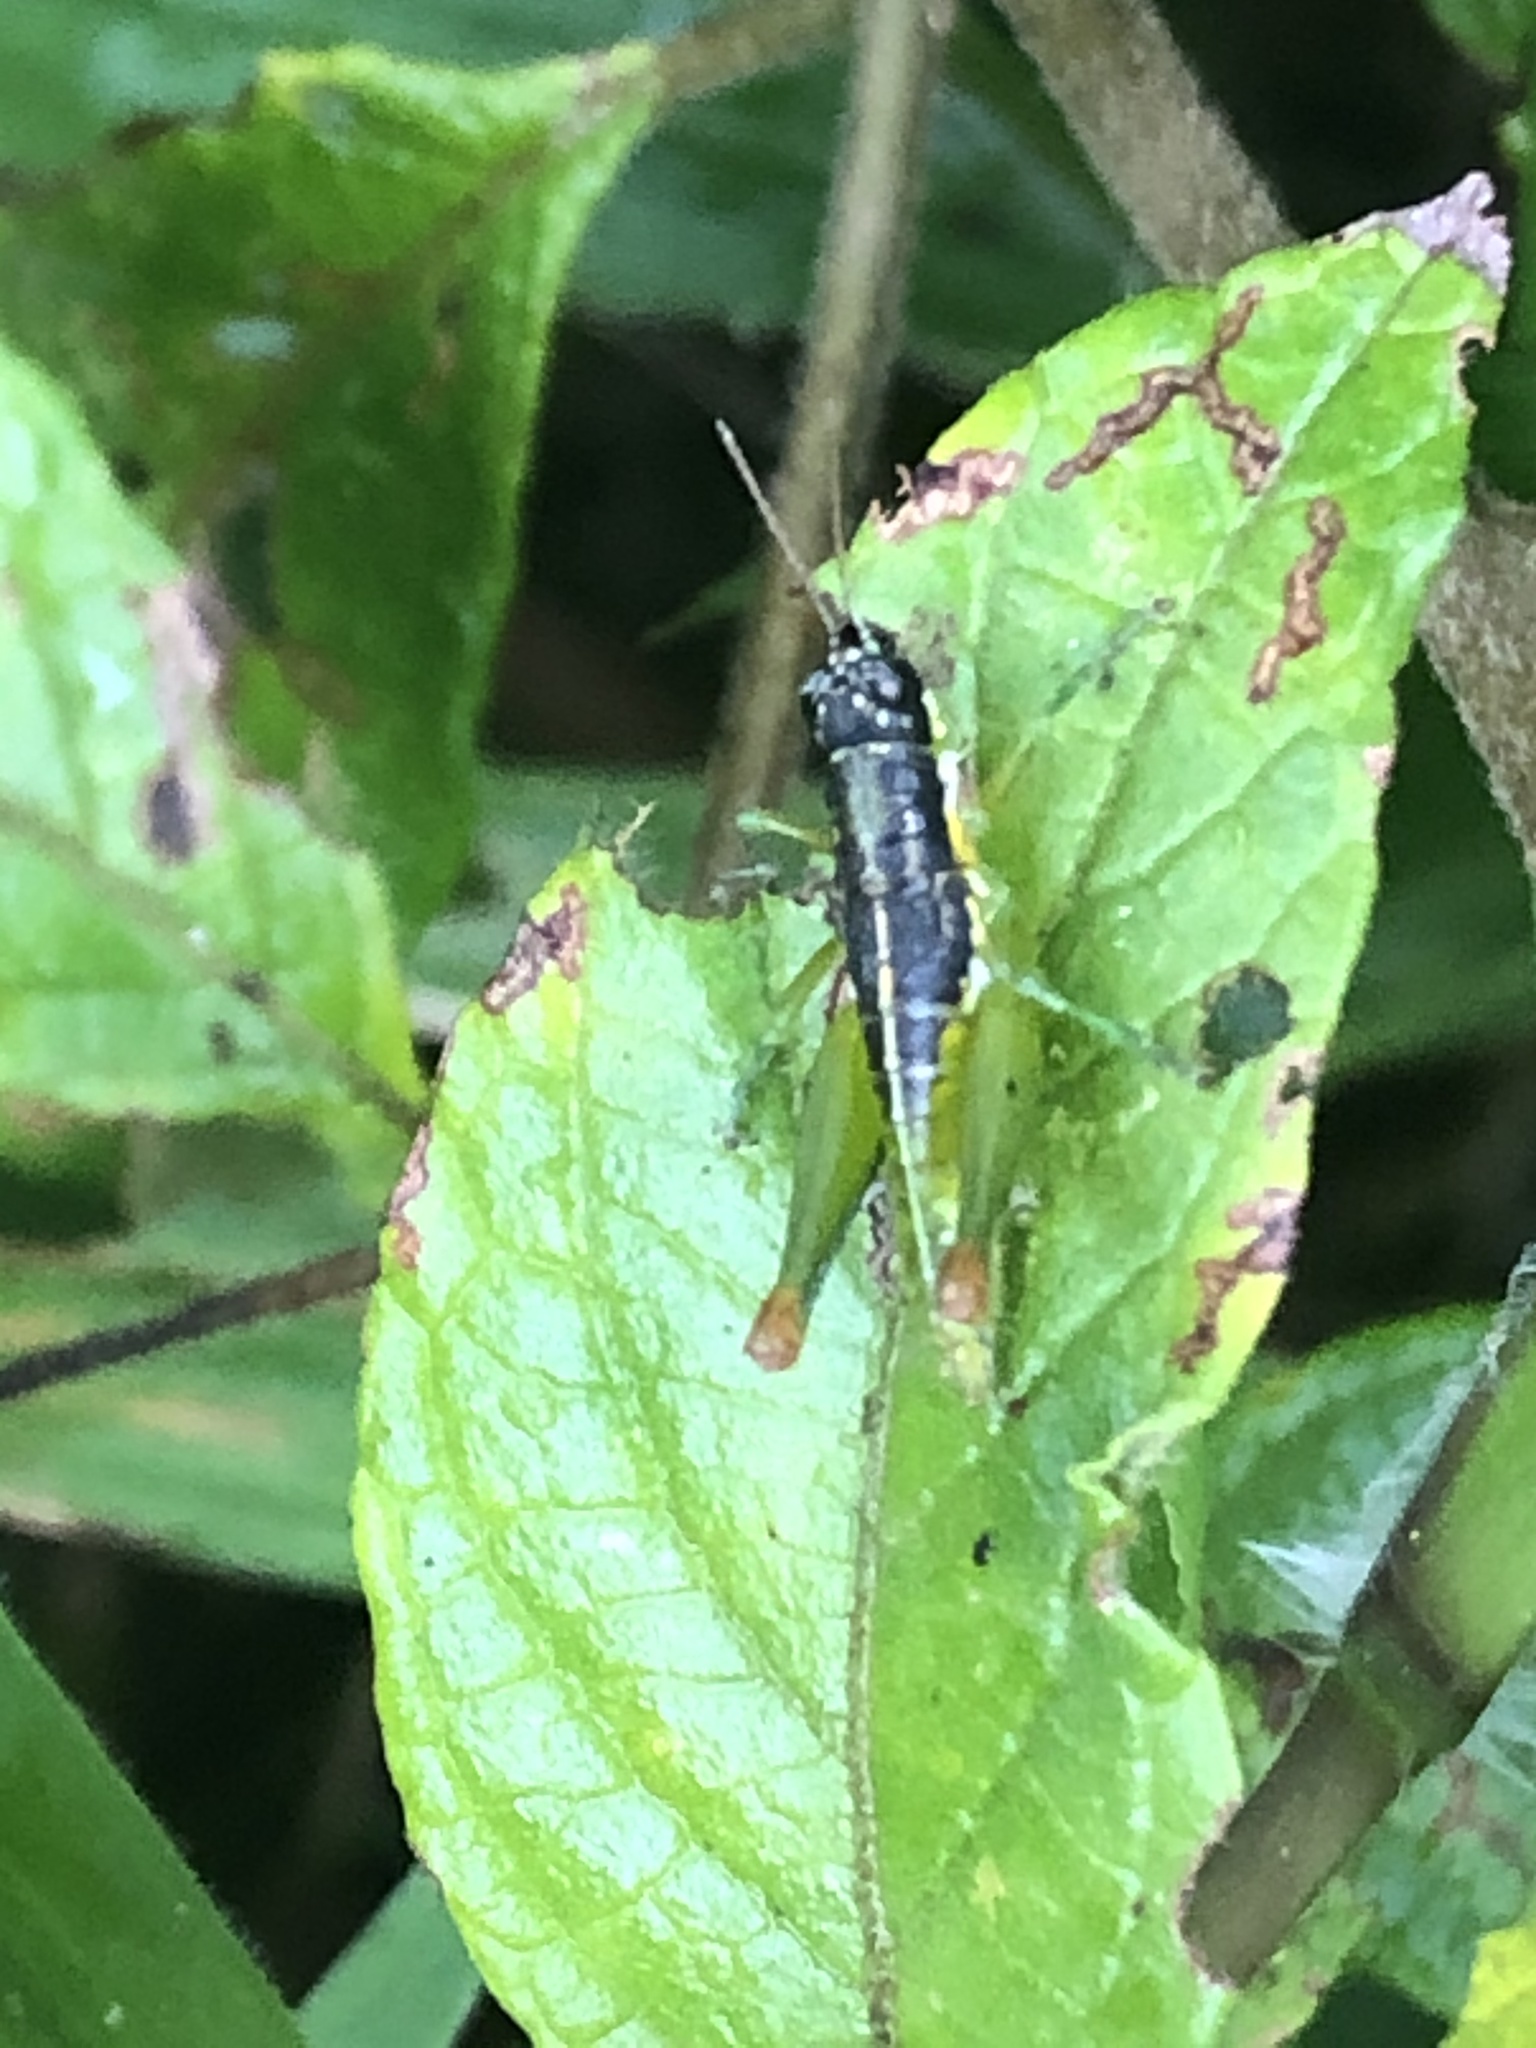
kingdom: Animalia
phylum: Arthropoda
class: Insecta
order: Orthoptera
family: Acrididae
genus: Liebermannacris
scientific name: Liebermannacris dorsualis
